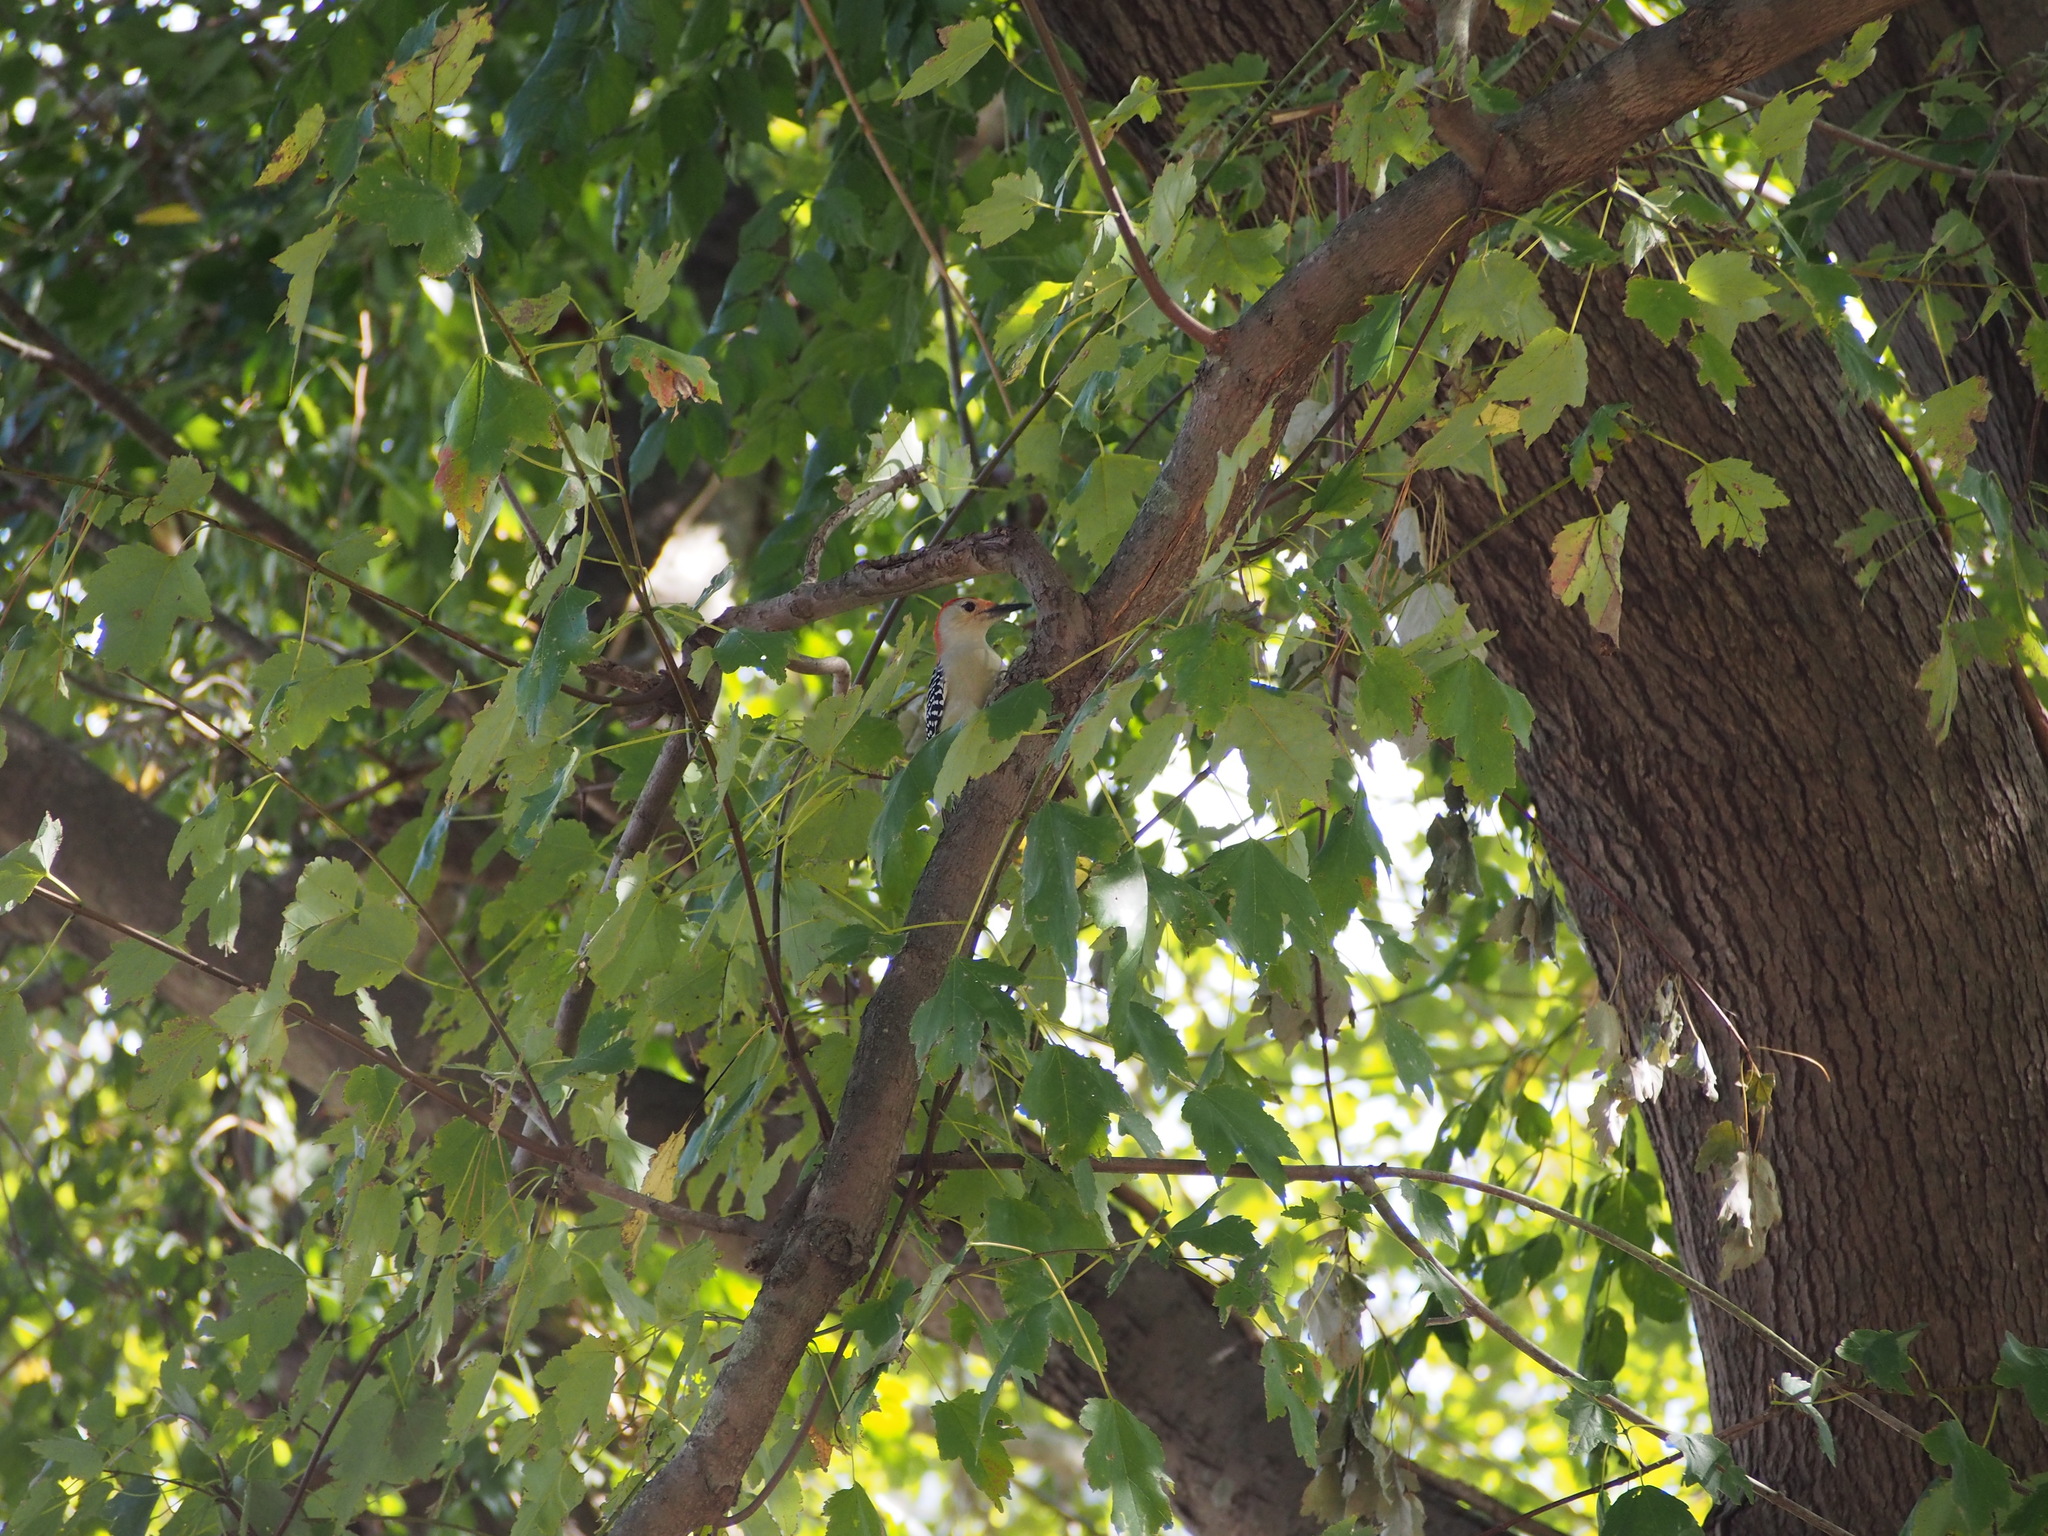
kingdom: Animalia
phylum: Chordata
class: Aves
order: Piciformes
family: Picidae
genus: Melanerpes
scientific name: Melanerpes carolinus
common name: Red-bellied woodpecker
